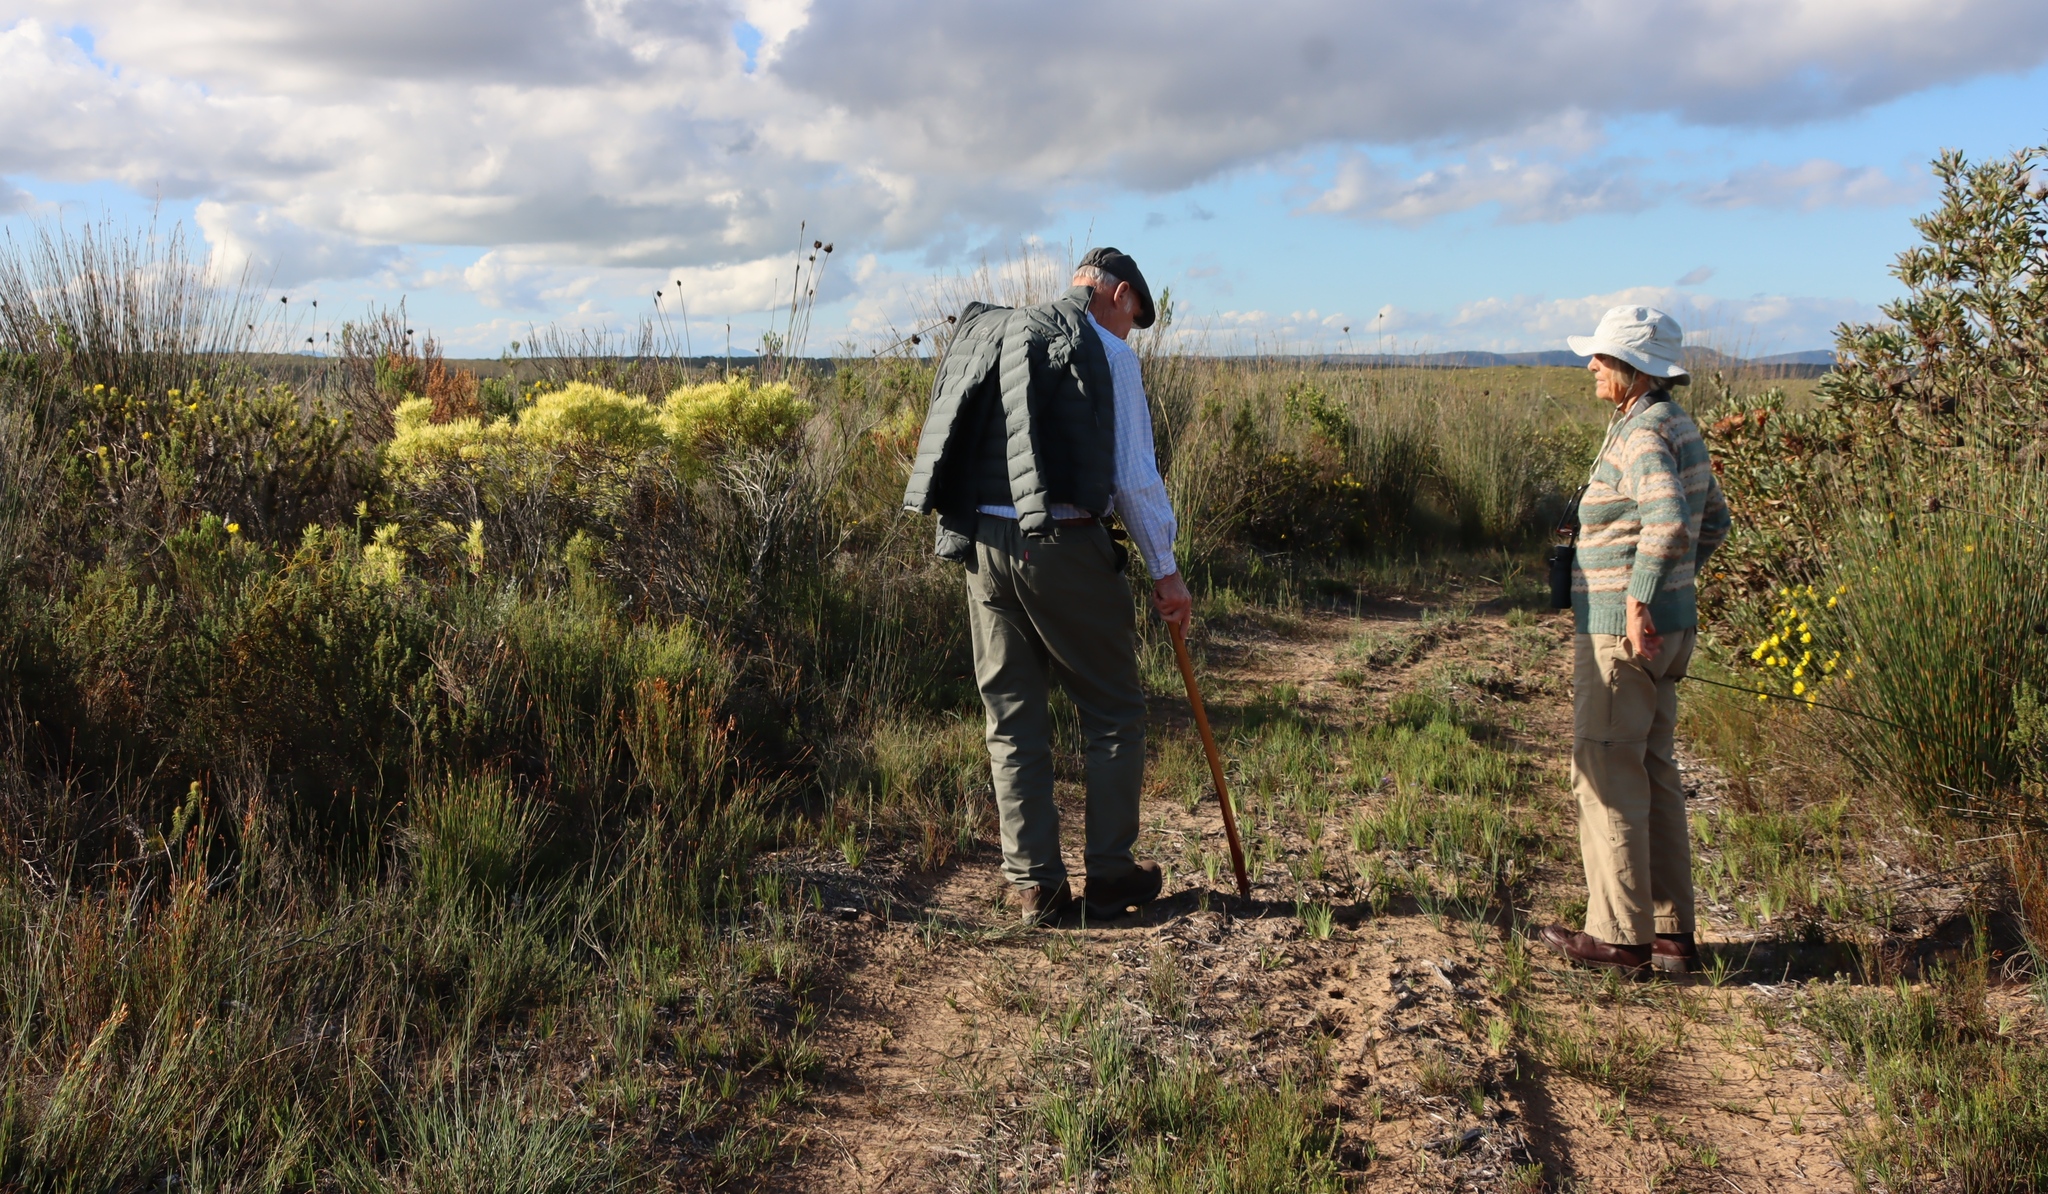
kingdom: Plantae
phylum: Tracheophyta
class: Magnoliopsida
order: Proteales
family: Proteaceae
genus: Leucadendron
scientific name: Leucadendron salignum
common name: Common sunshine conebush
